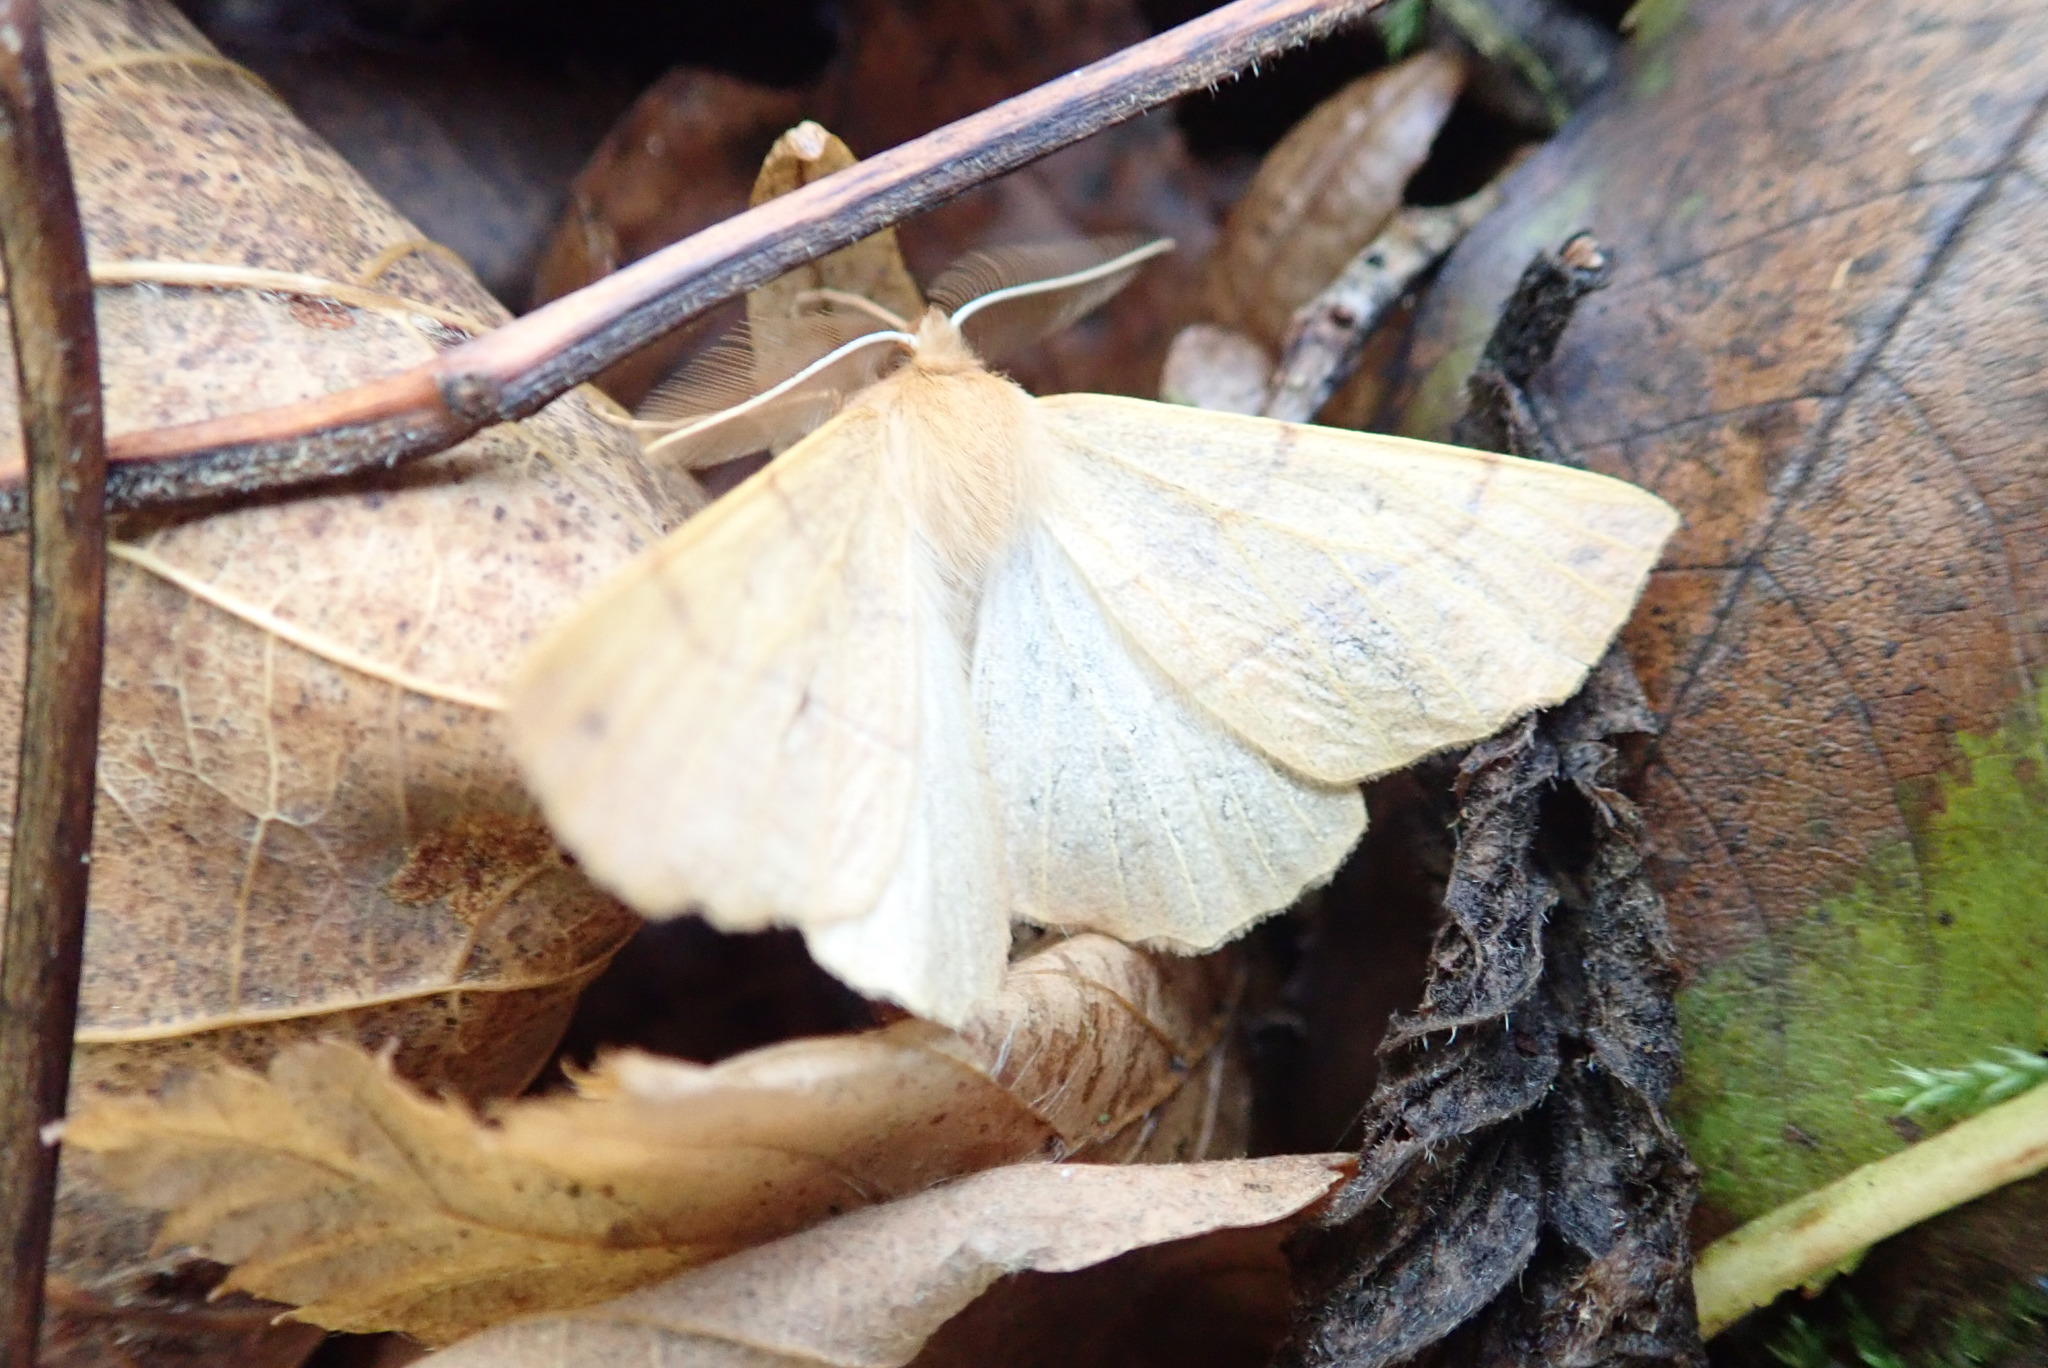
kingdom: Animalia
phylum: Arthropoda
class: Insecta
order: Lepidoptera
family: Geometridae
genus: Colotois
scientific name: Colotois pennaria
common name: Feathered thorn
